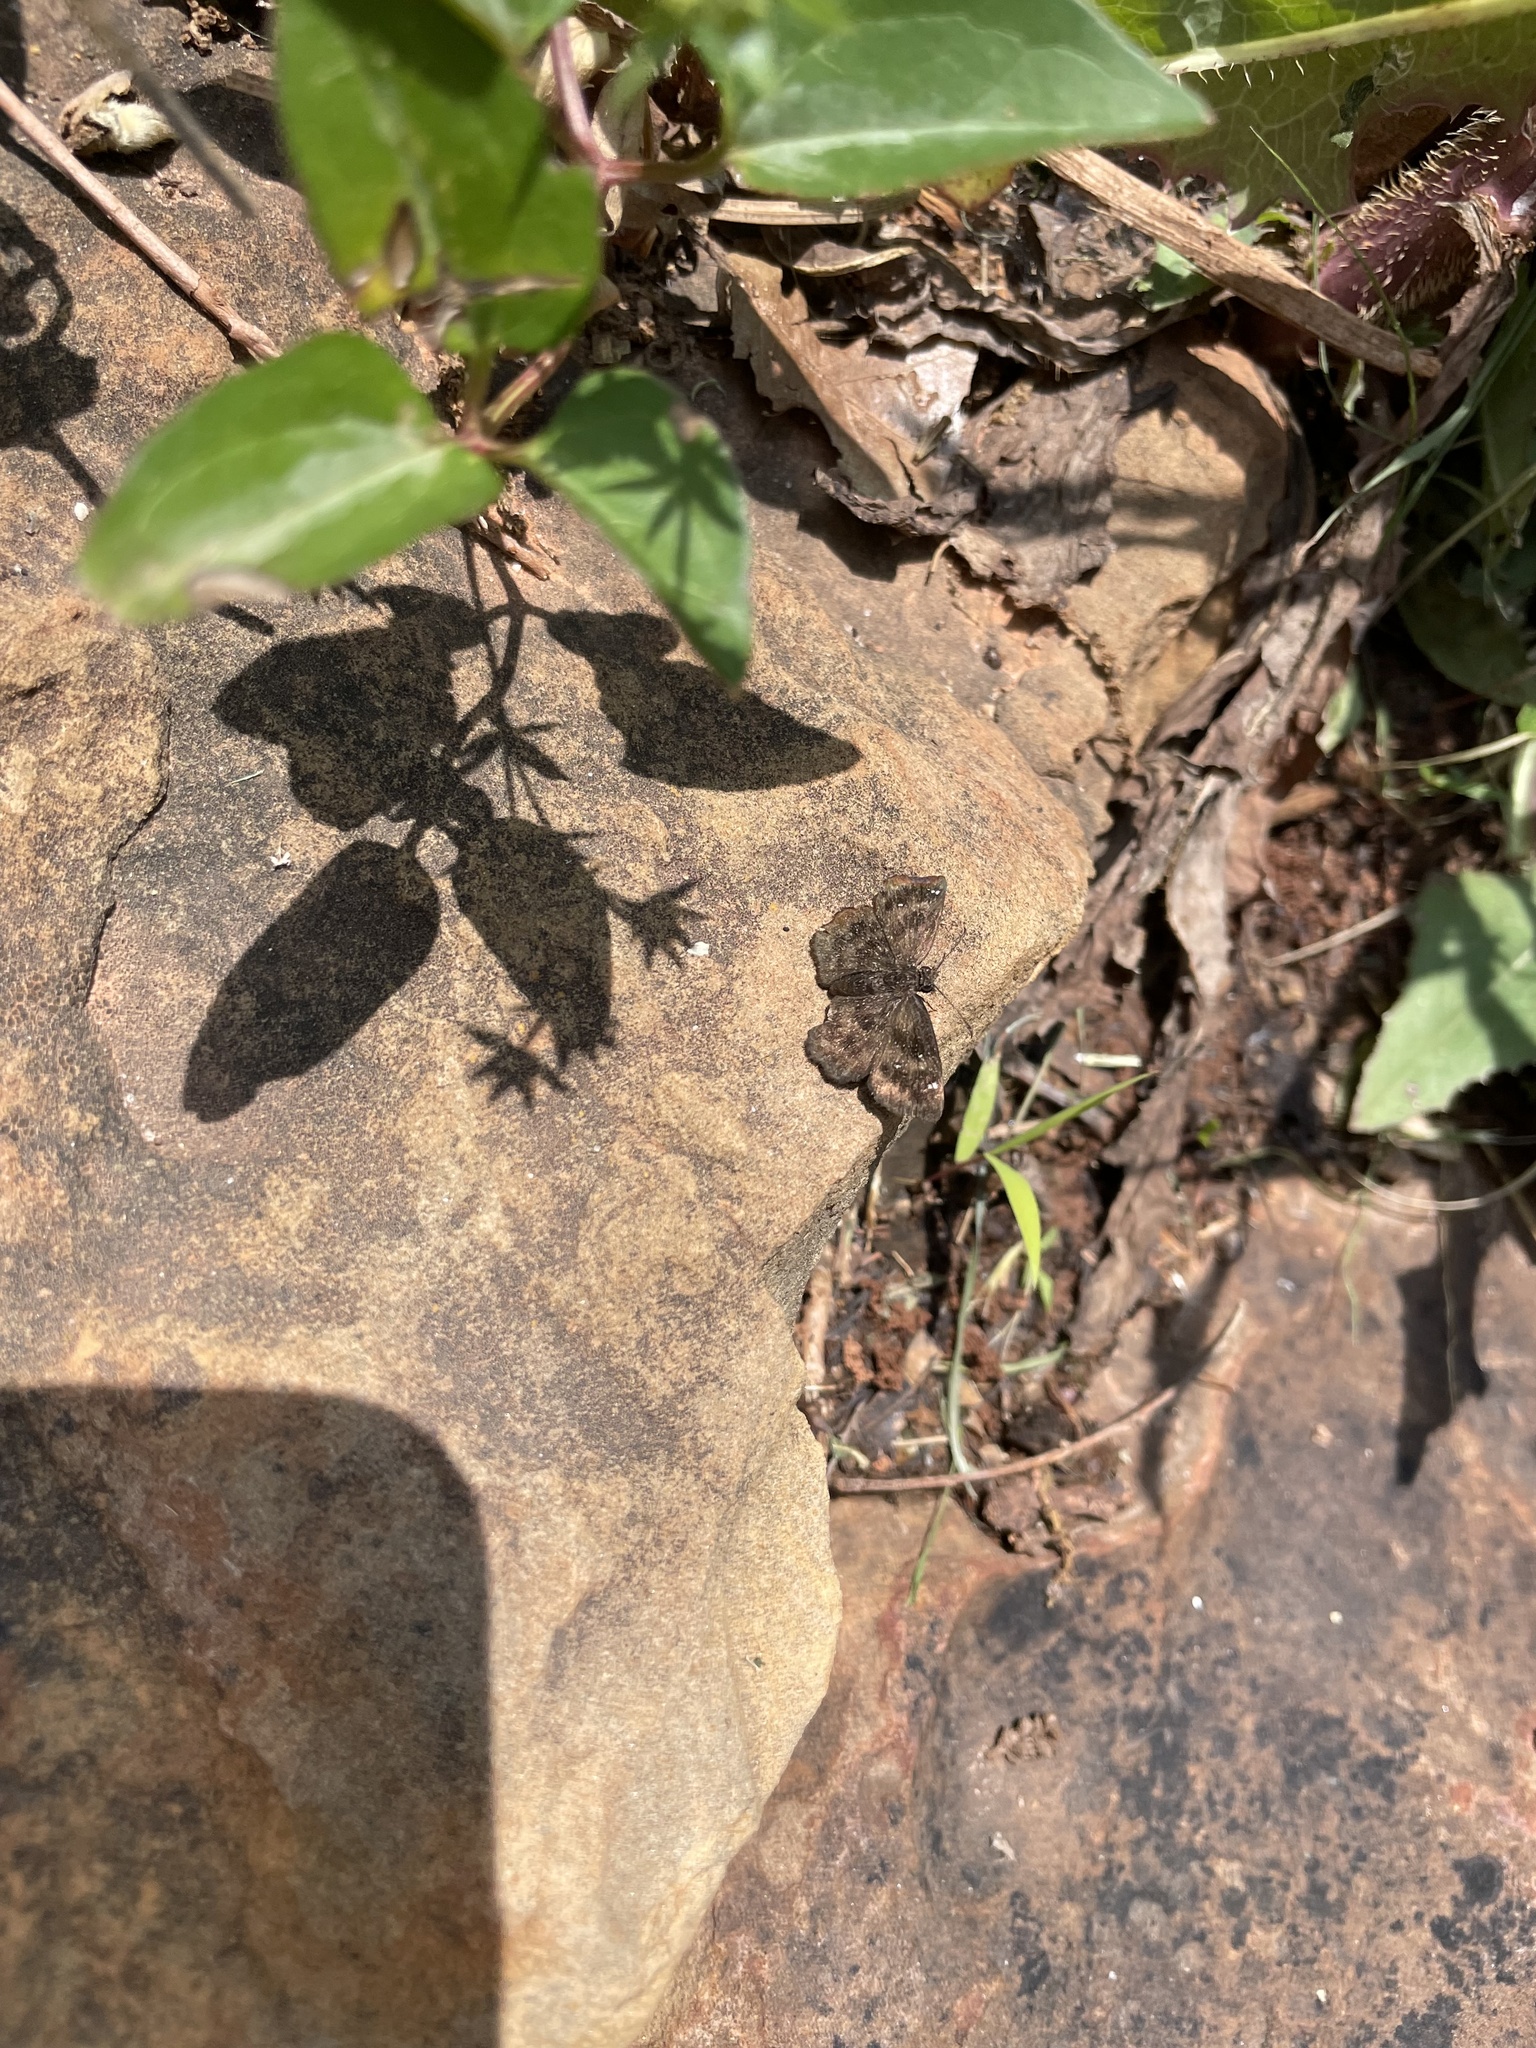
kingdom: Animalia
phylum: Arthropoda
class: Insecta
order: Lepidoptera
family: Hesperiidae
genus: Staphylus
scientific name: Staphylus mazans
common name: Mazans scallopwing
